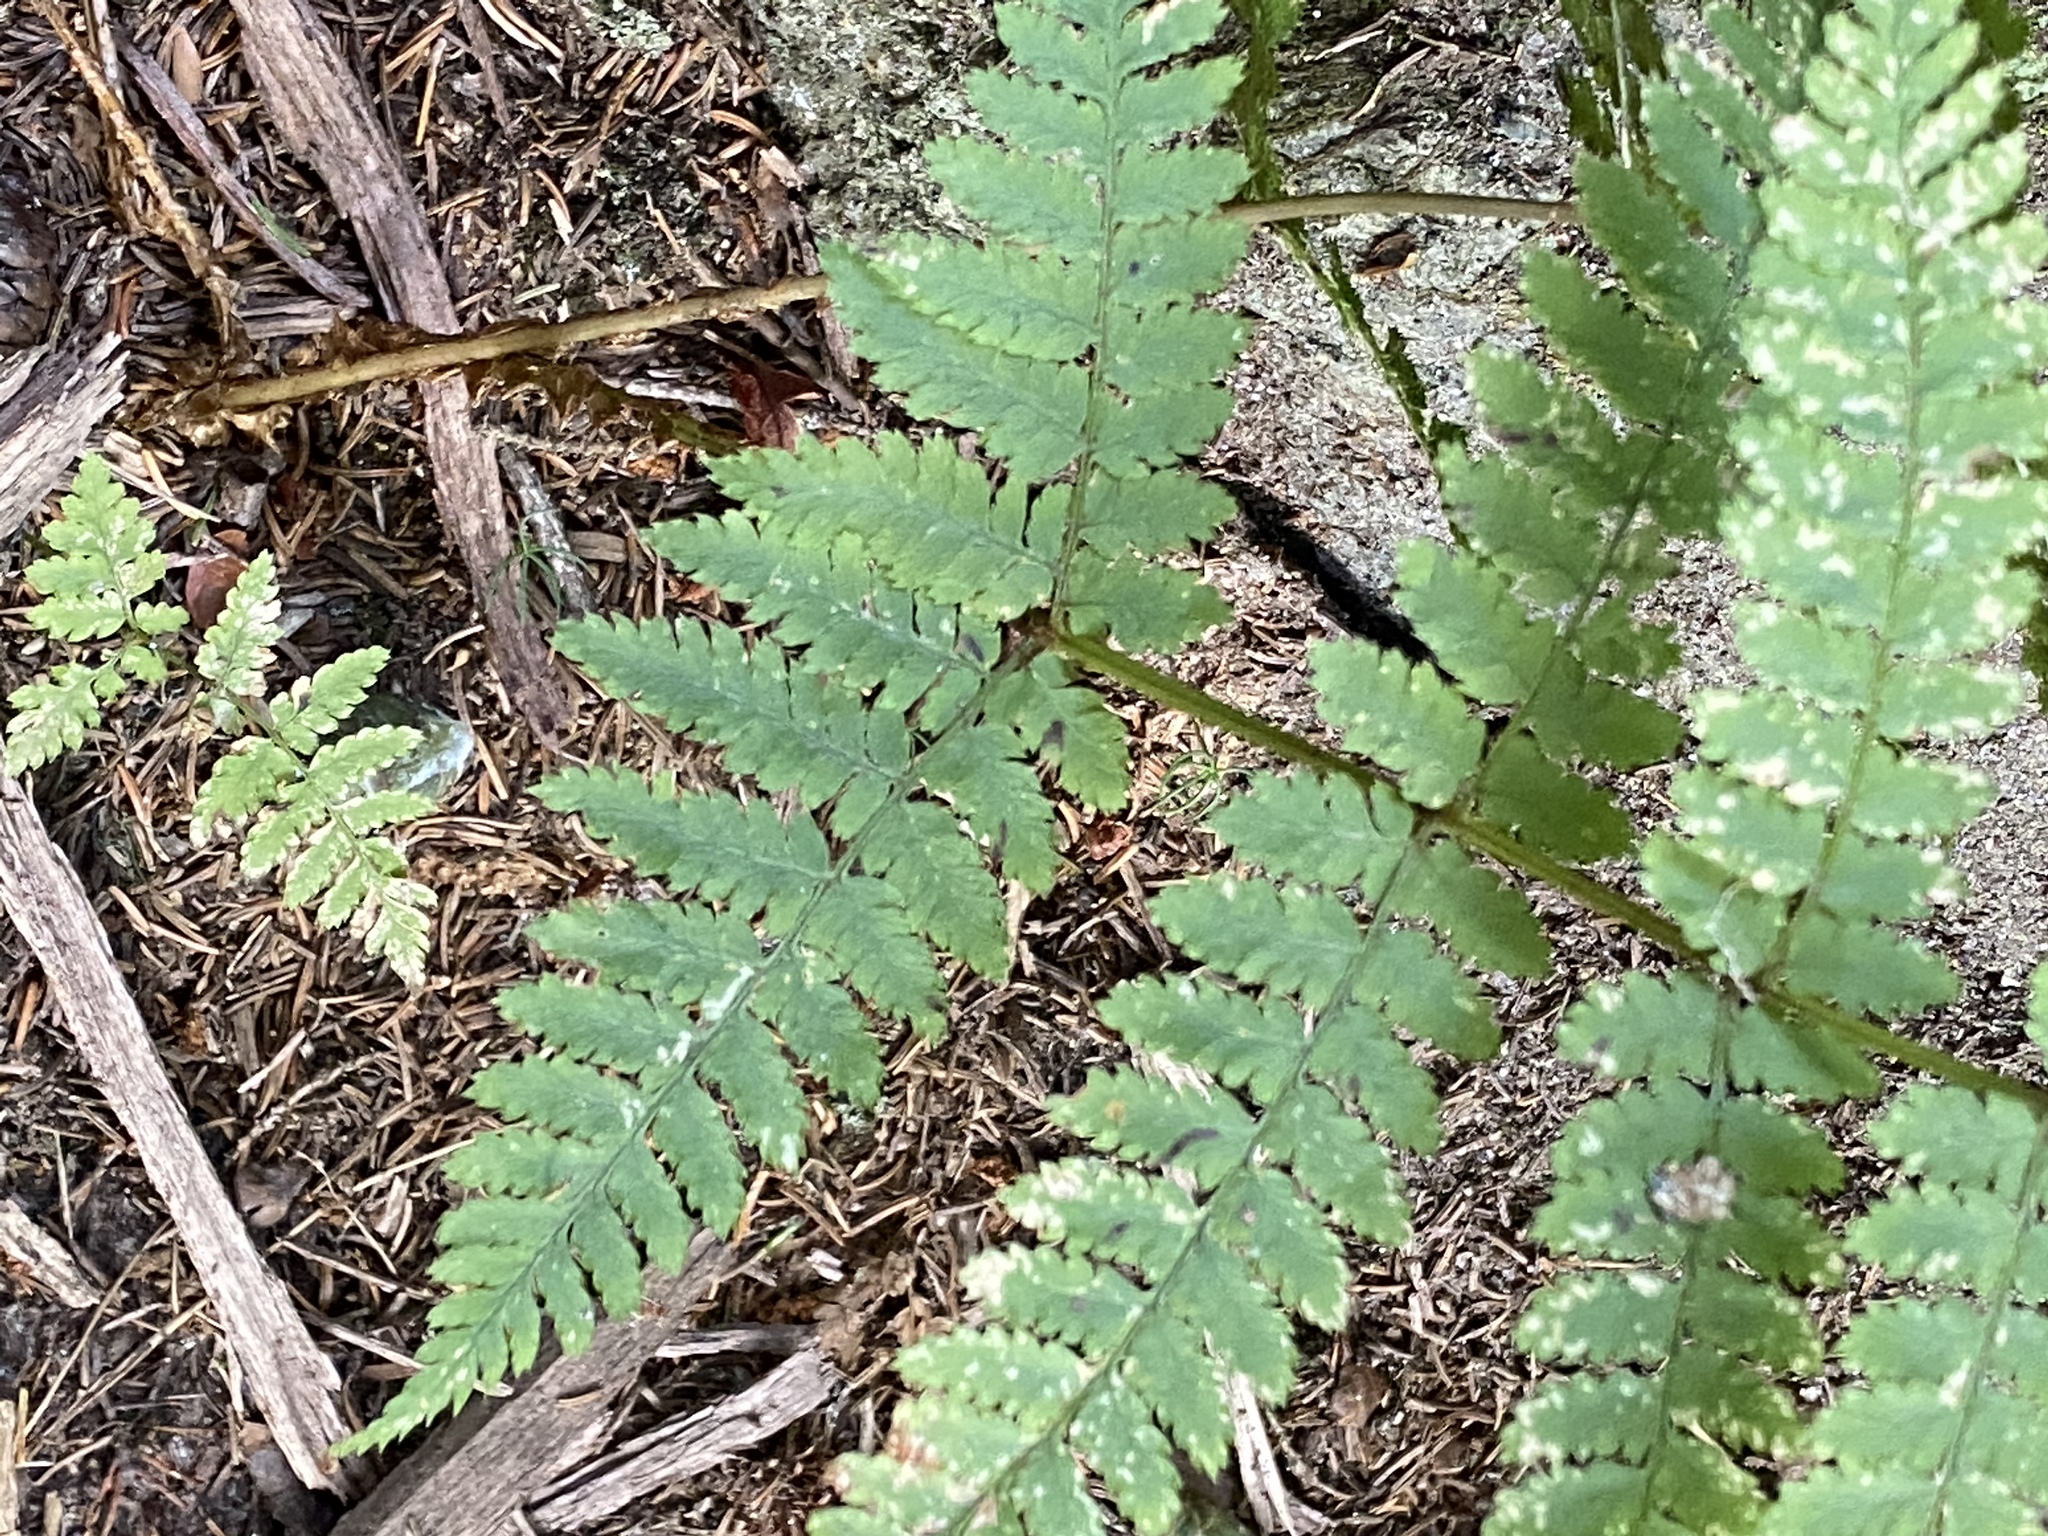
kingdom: Plantae
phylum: Tracheophyta
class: Polypodiopsida
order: Polypodiales
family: Dryopteridaceae
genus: Dryopteris
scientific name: Dryopteris intermedia
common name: Evergreen wood fern
